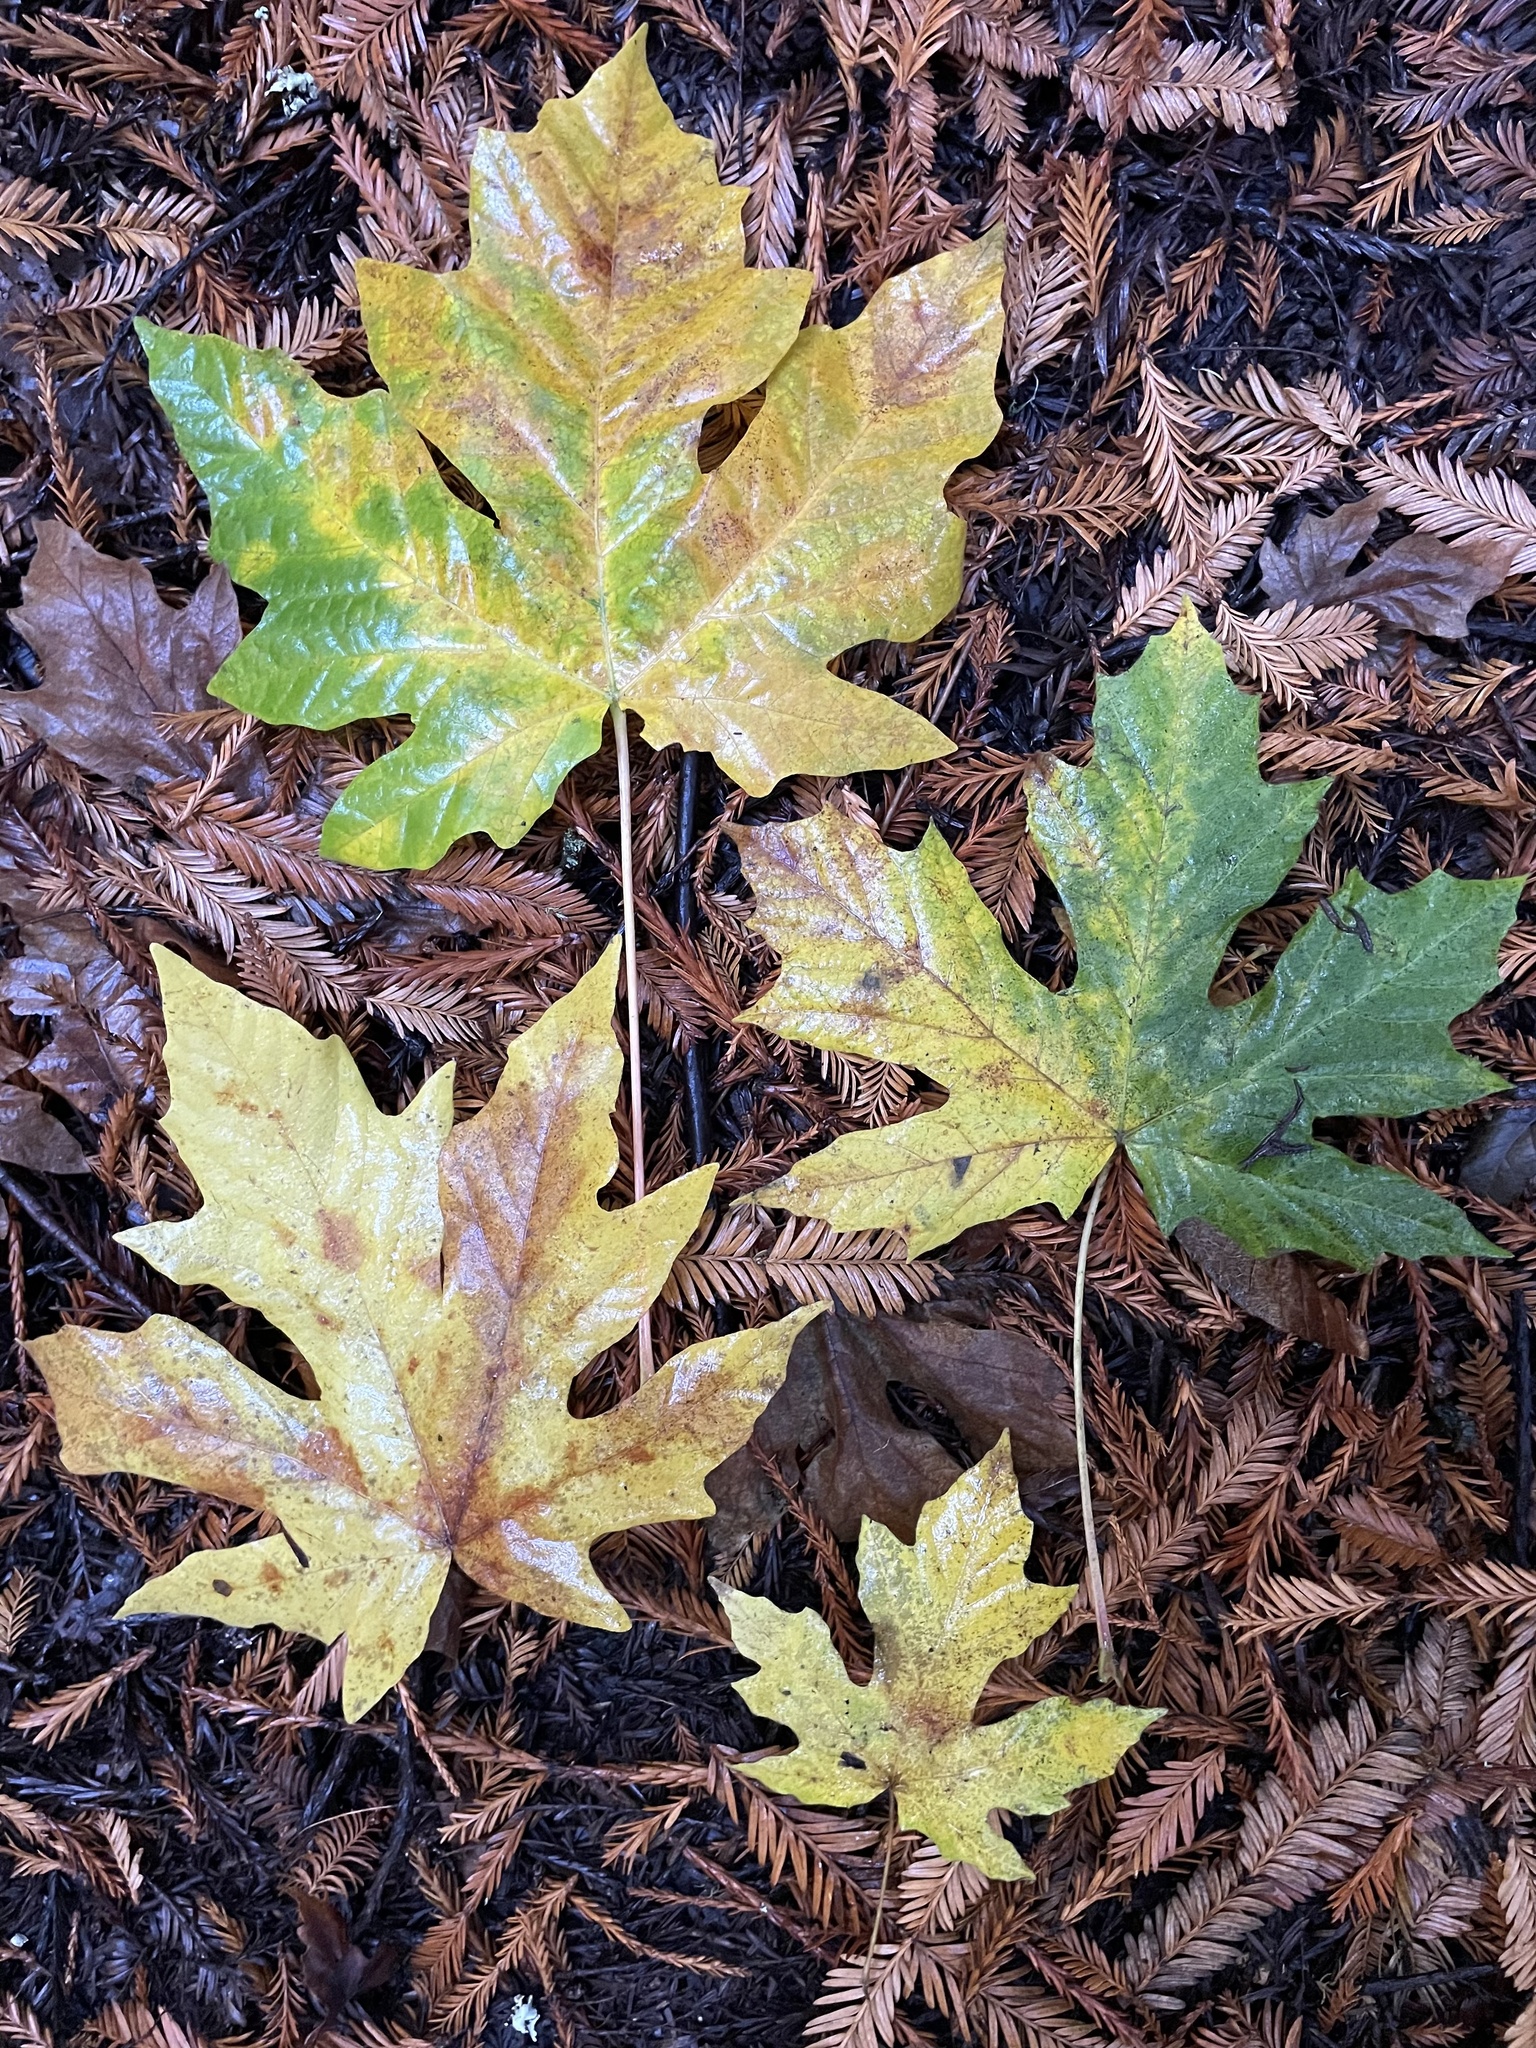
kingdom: Plantae
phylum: Tracheophyta
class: Magnoliopsida
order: Sapindales
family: Sapindaceae
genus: Acer
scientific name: Acer macrophyllum
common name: Oregon maple
